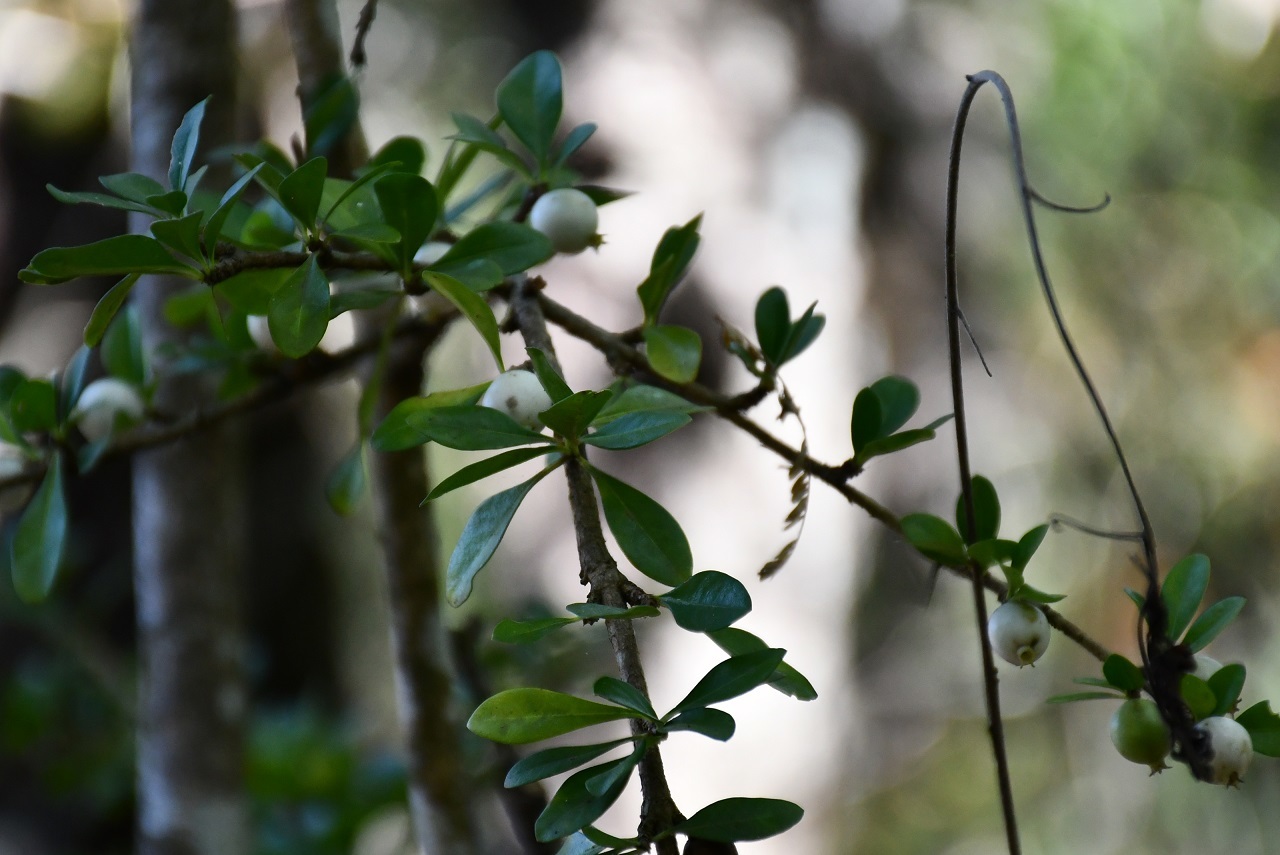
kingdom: Plantae
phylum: Tracheophyta
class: Magnoliopsida
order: Gentianales
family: Rubiaceae
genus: Randia
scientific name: Randia chiapensis
